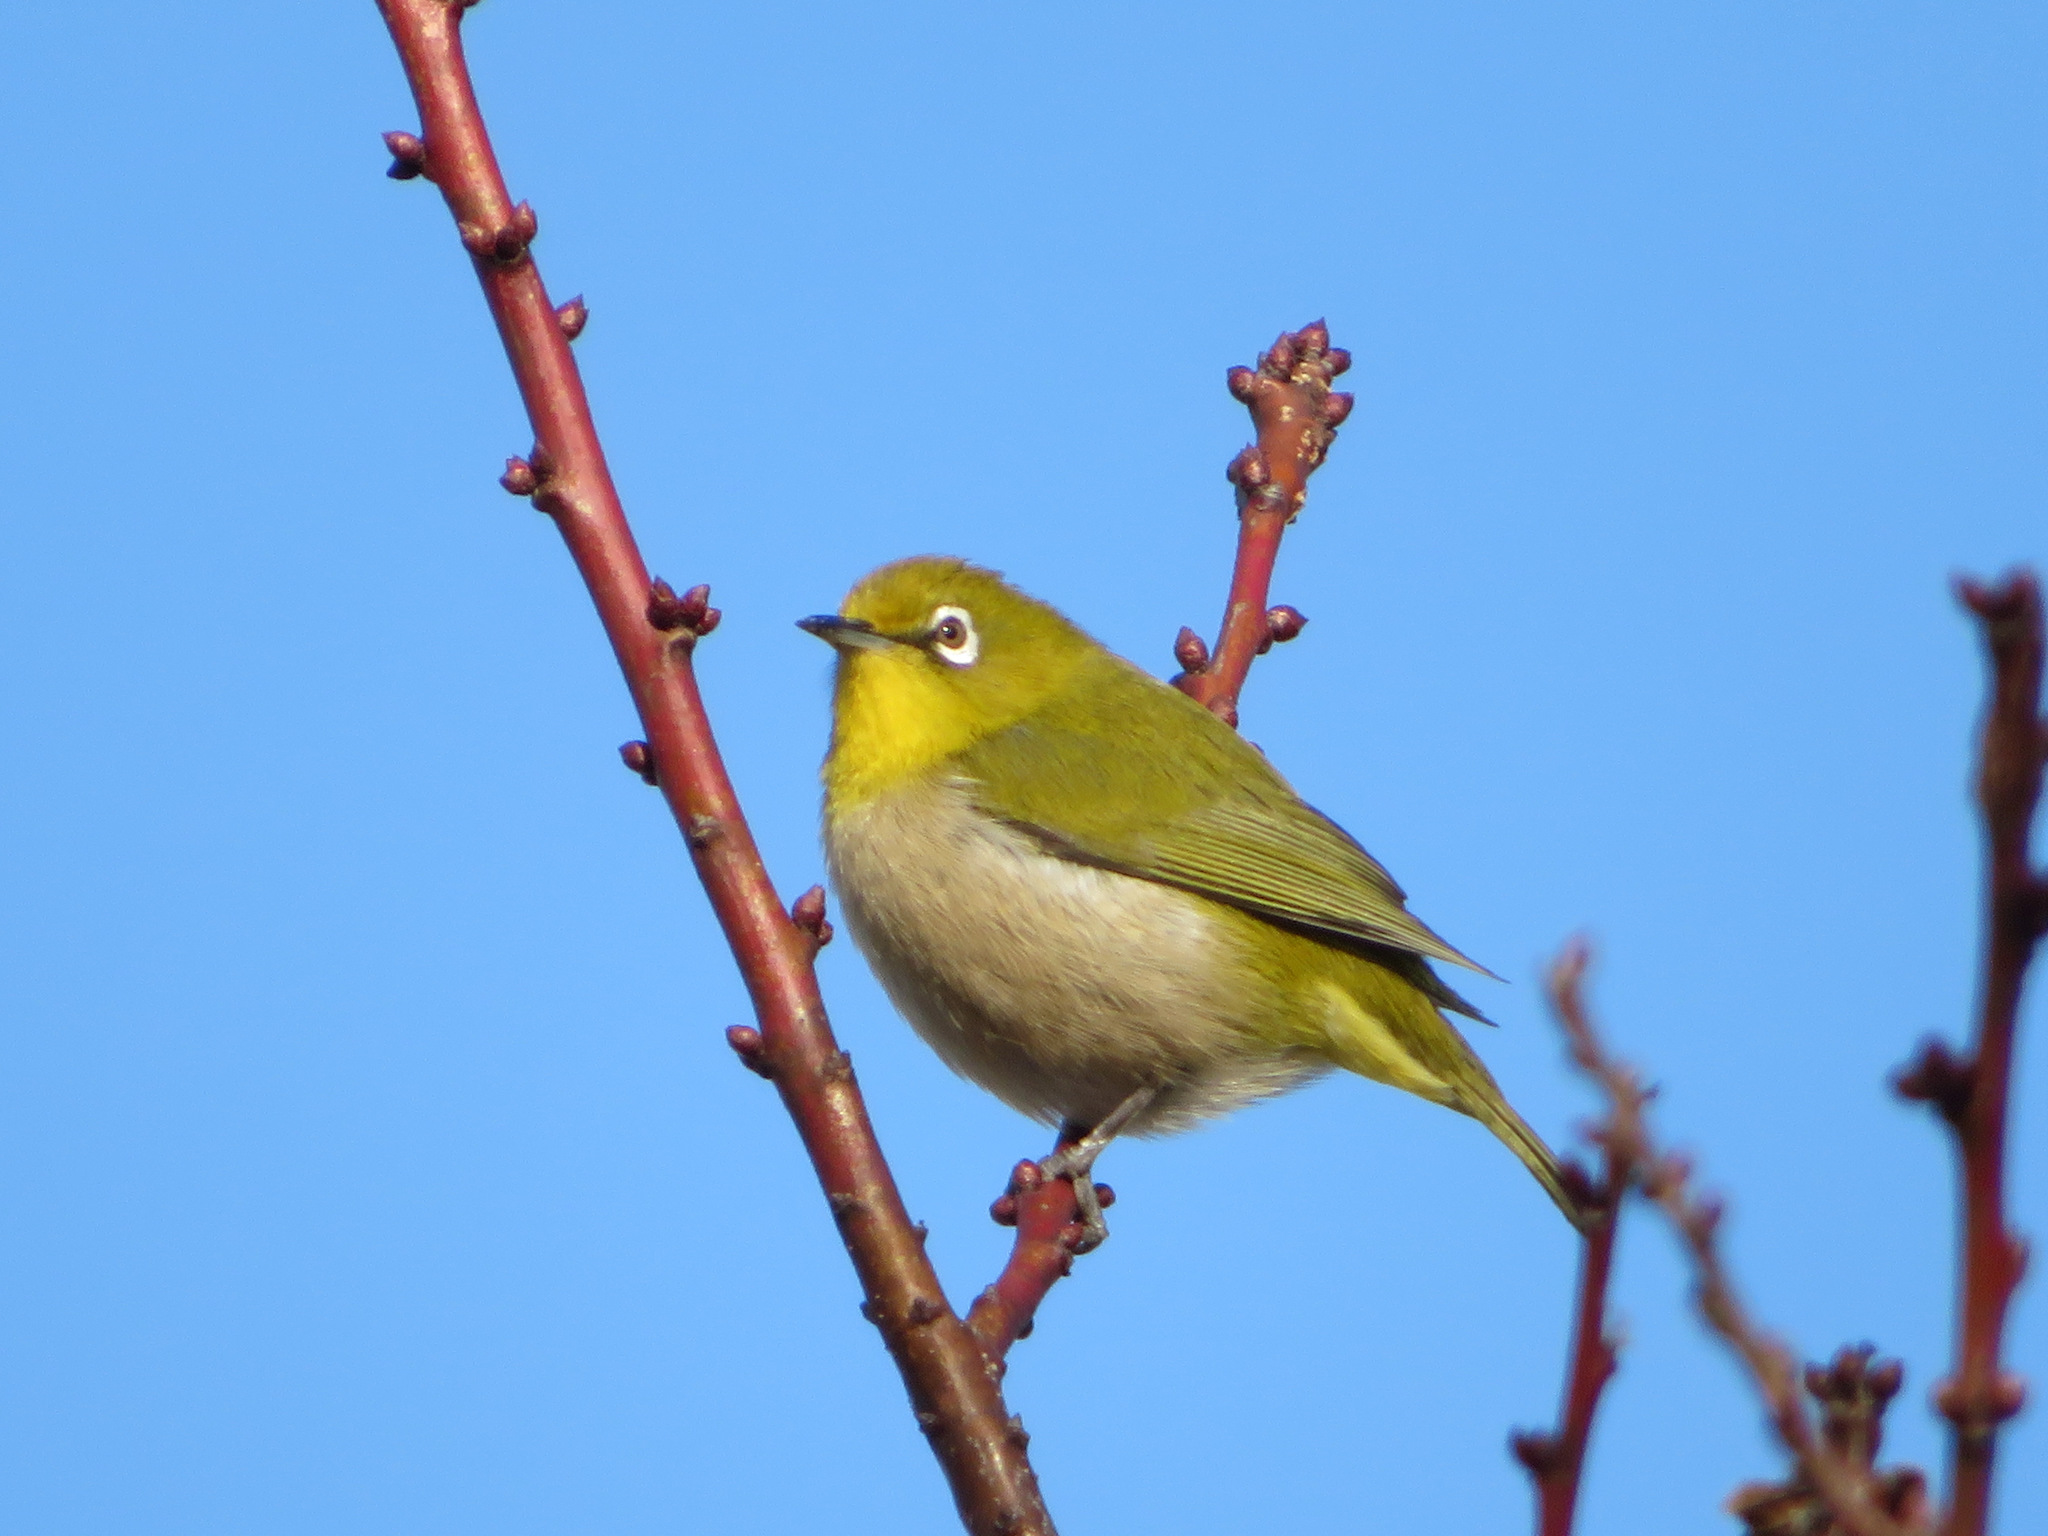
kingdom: Animalia
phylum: Chordata
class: Aves
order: Passeriformes
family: Zosteropidae
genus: Zosterops
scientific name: Zosterops japonicus
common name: Japanese white-eye
